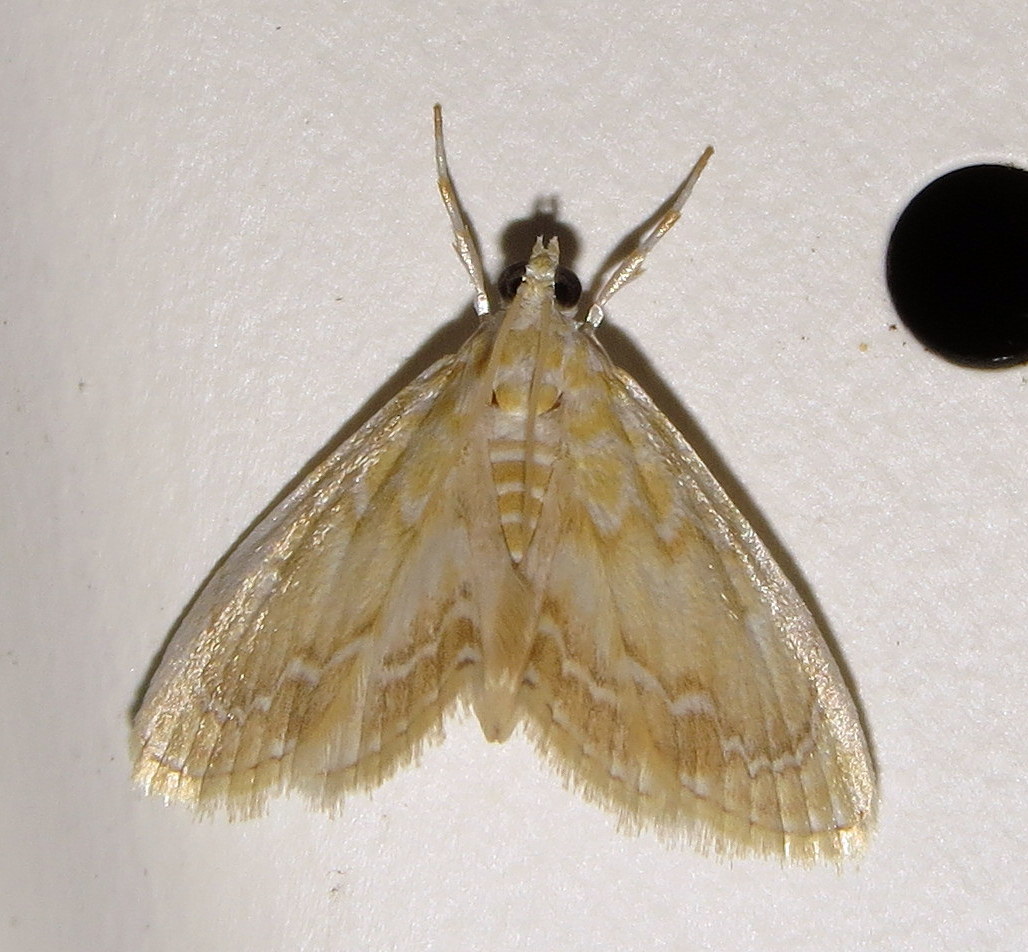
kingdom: Animalia
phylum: Arthropoda
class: Insecta
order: Lepidoptera
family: Crambidae
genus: Glaphyria
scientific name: Glaphyria glaphyralis
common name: Common glaphyria moth
